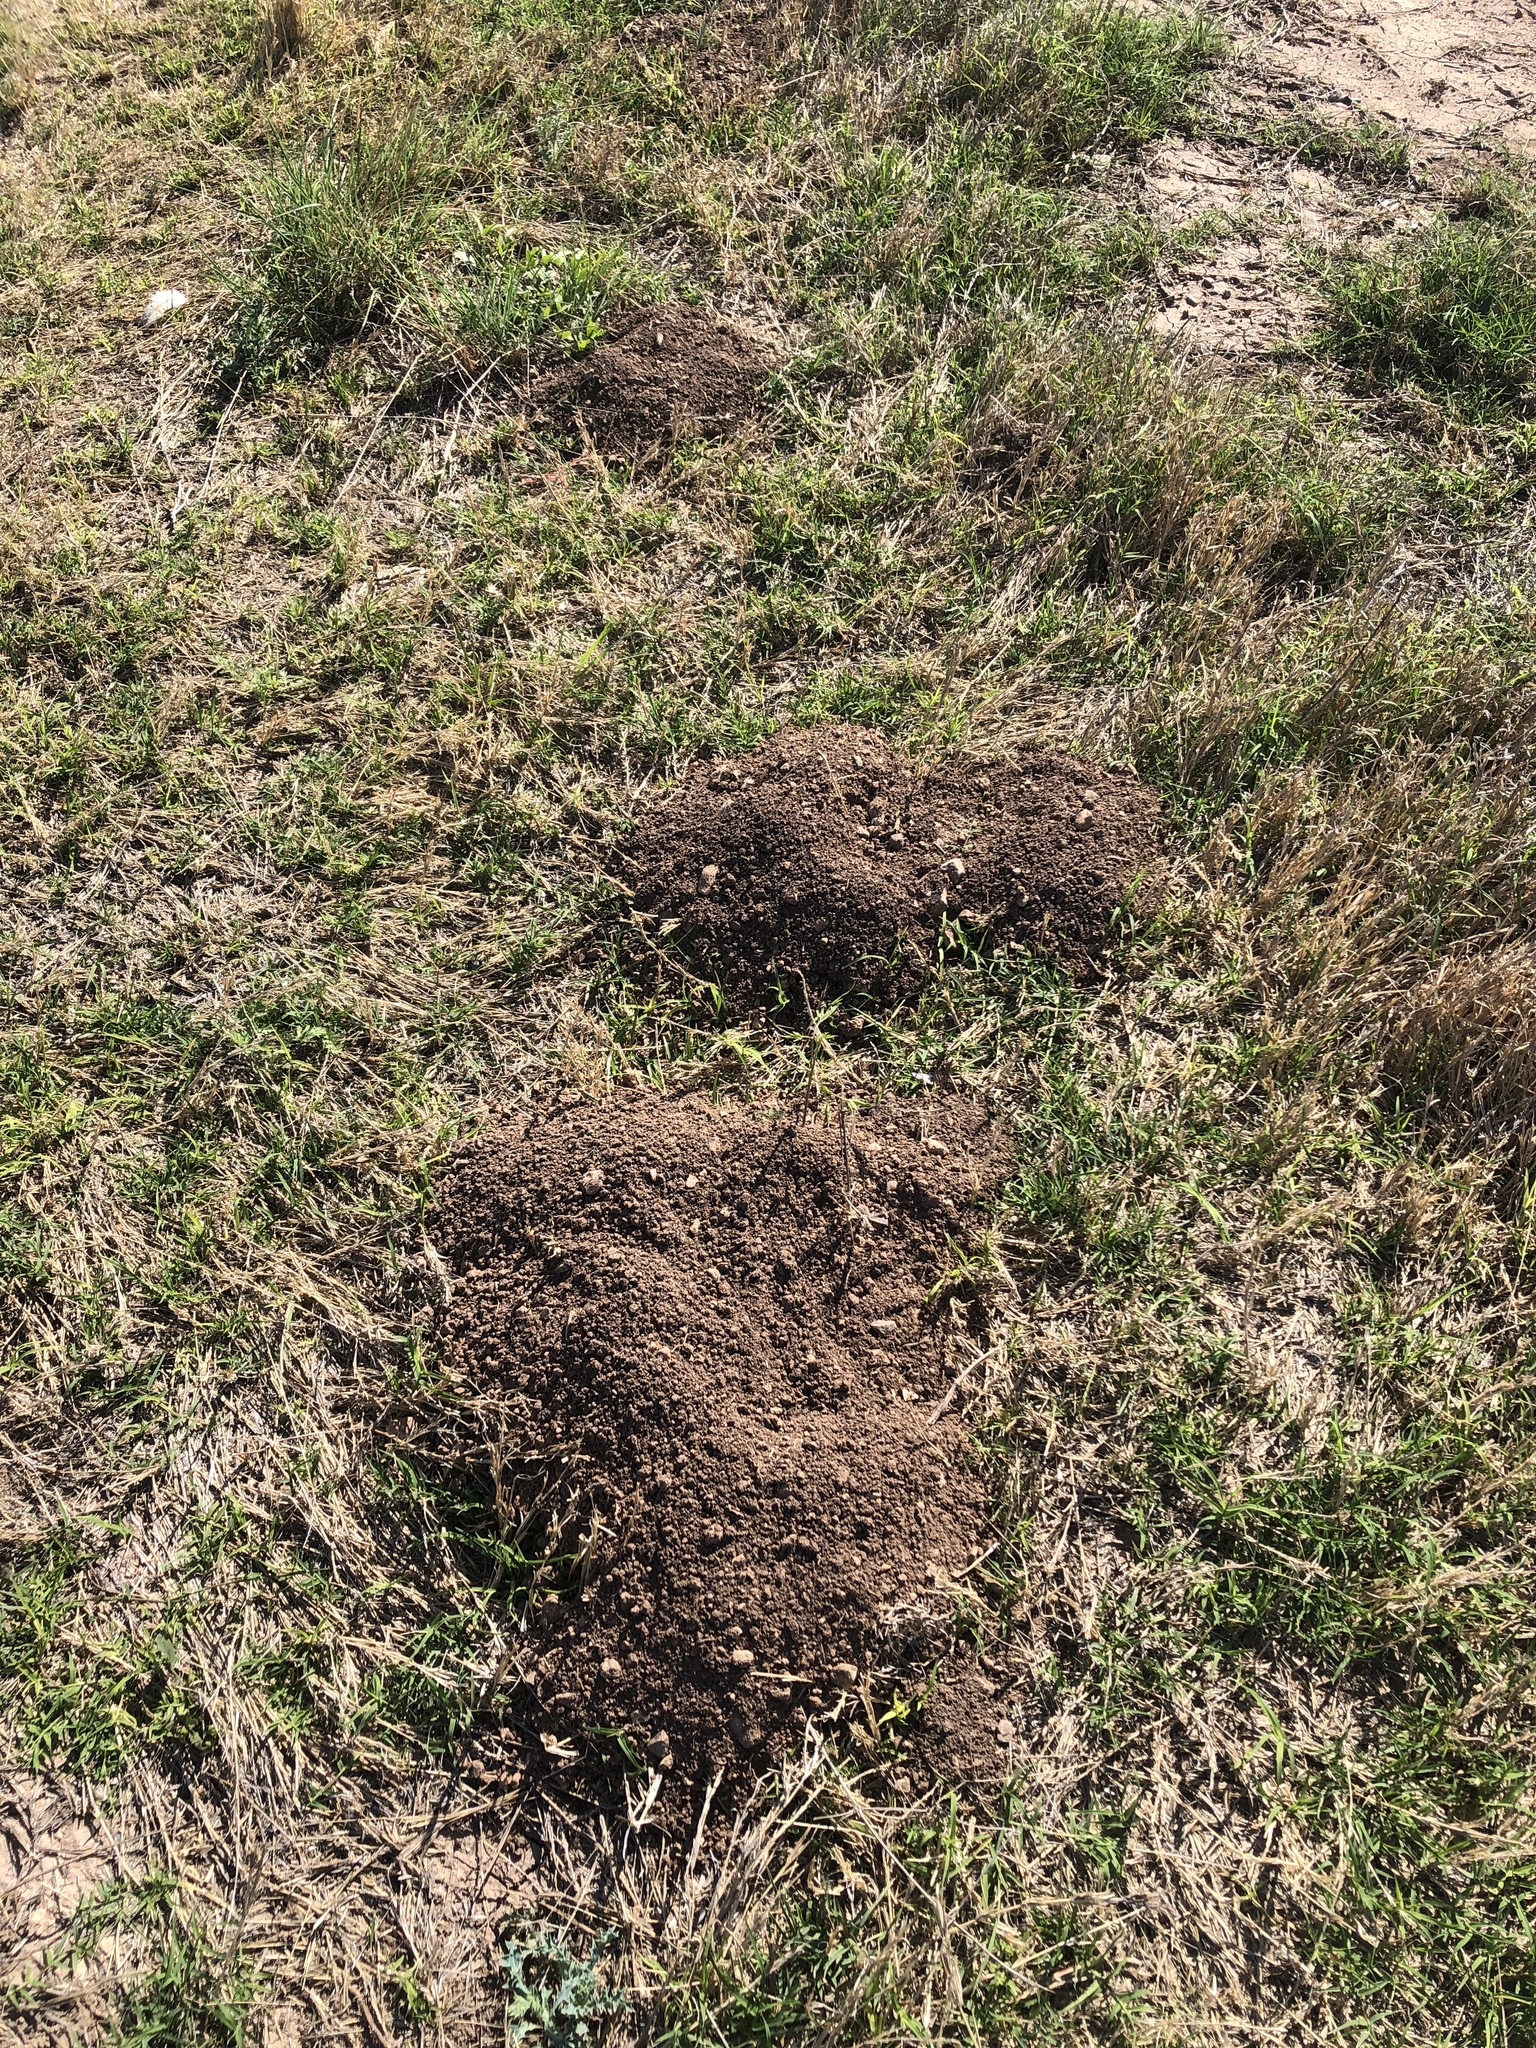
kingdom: Animalia
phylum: Chordata
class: Mammalia
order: Rodentia
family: Geomyidae
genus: Thomomys
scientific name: Thomomys bottae
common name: Botta's pocket gopher
